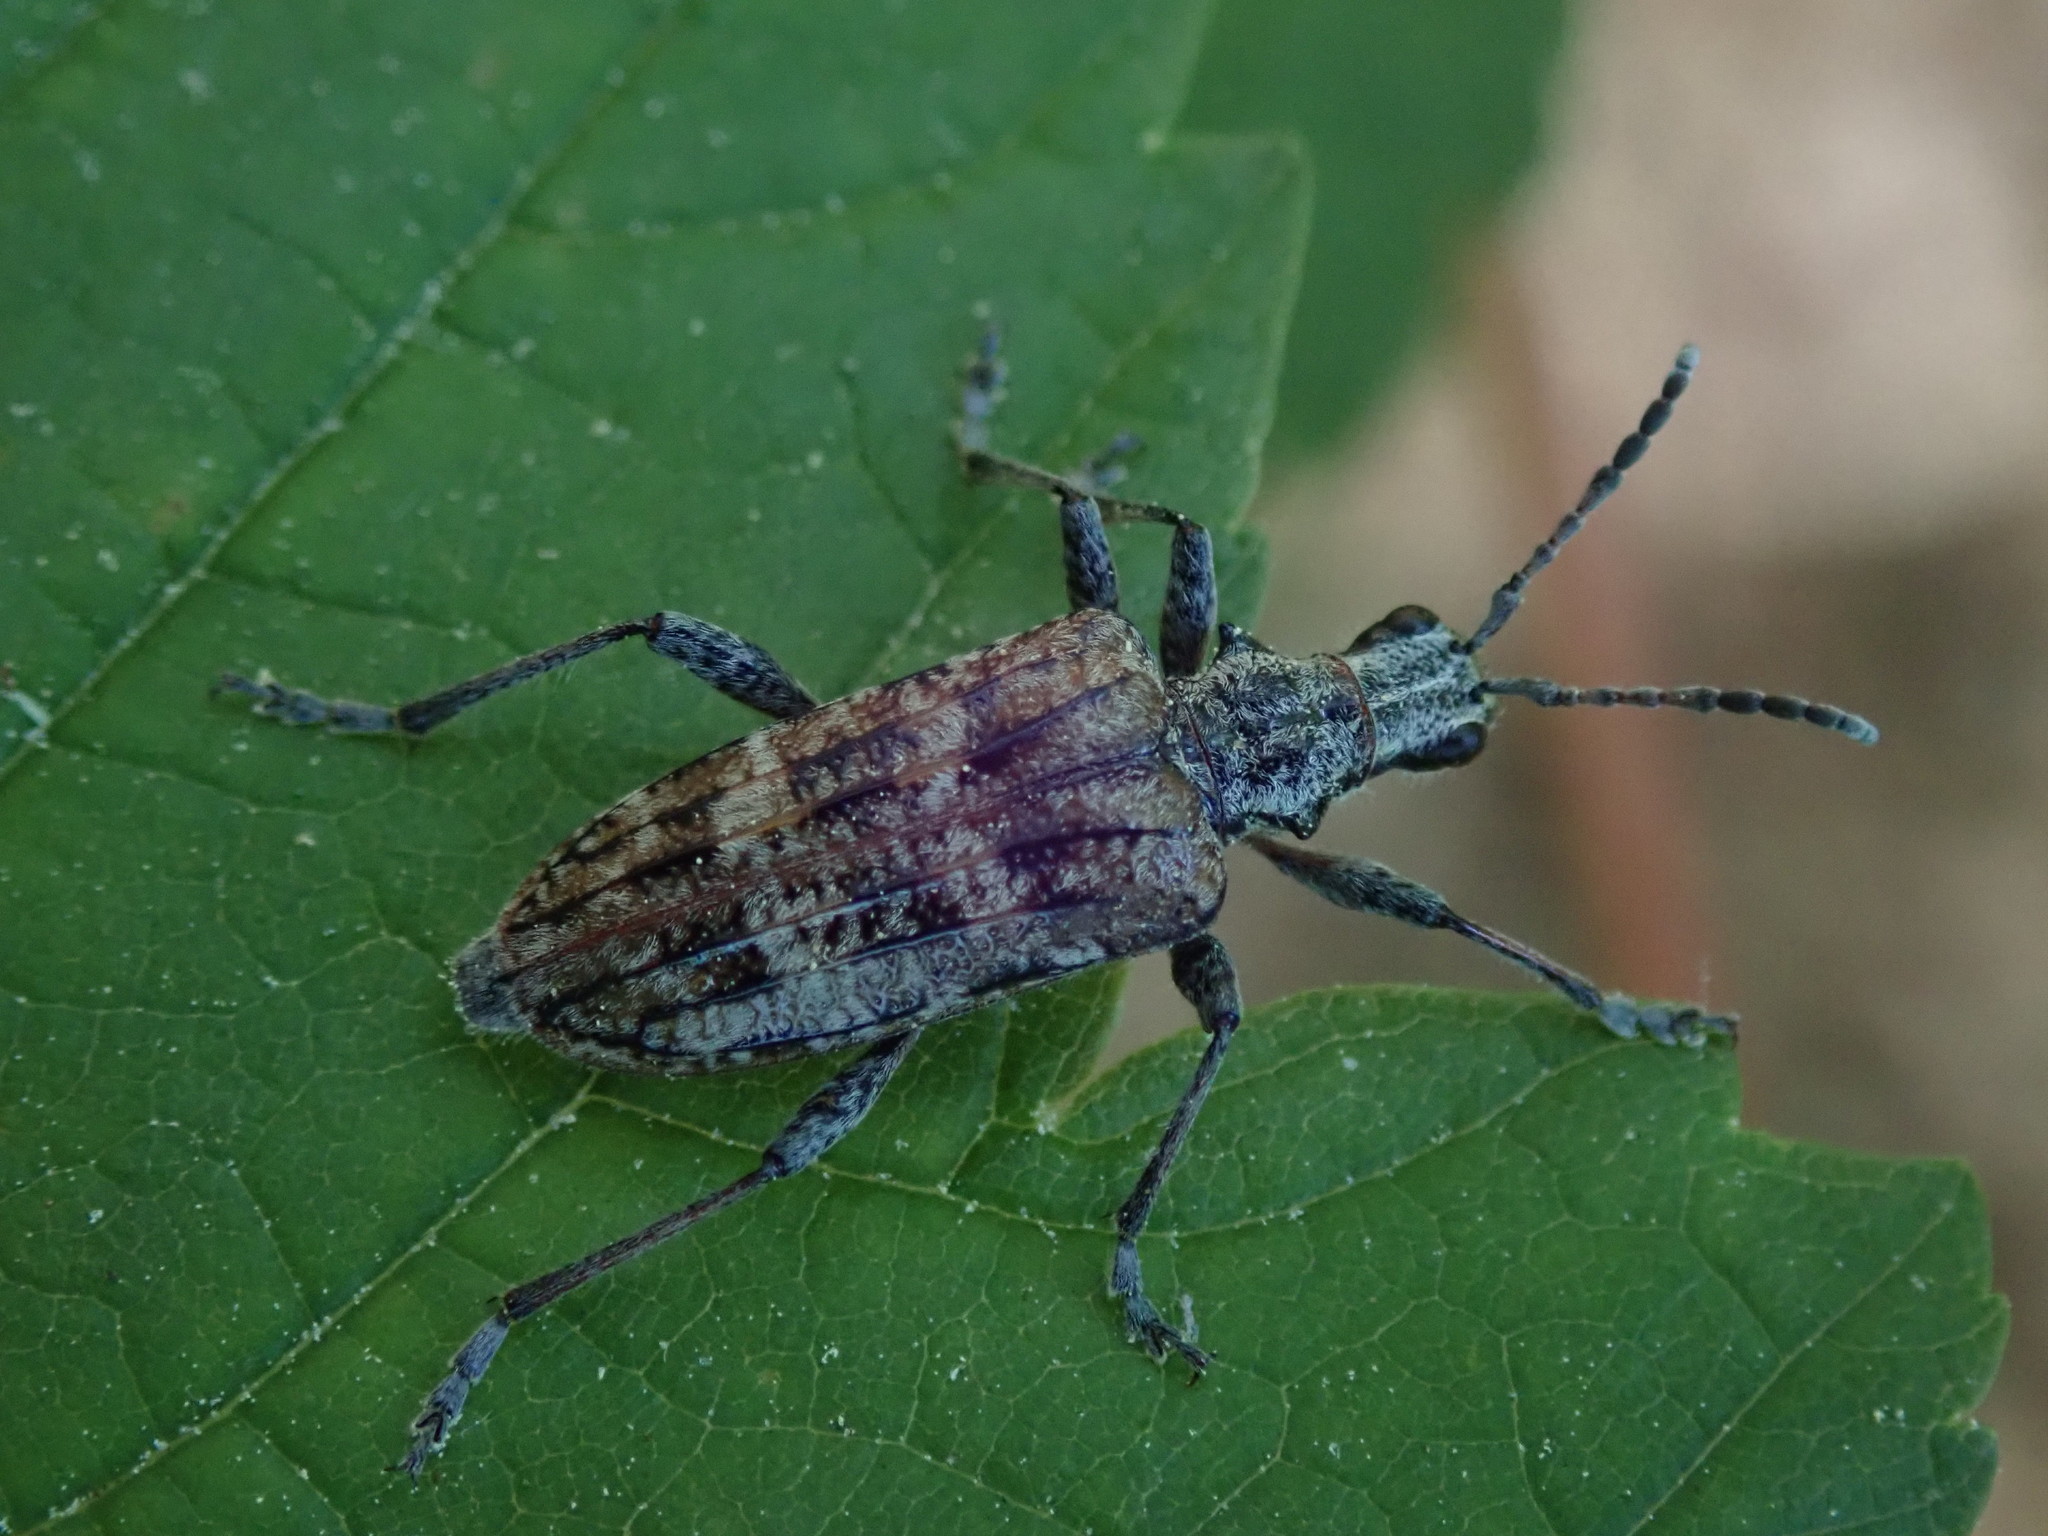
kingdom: Animalia
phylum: Arthropoda
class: Insecta
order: Coleoptera
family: Cerambycidae
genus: Rhagium
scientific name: Rhagium inquisitor
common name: Ribbed pine borer
